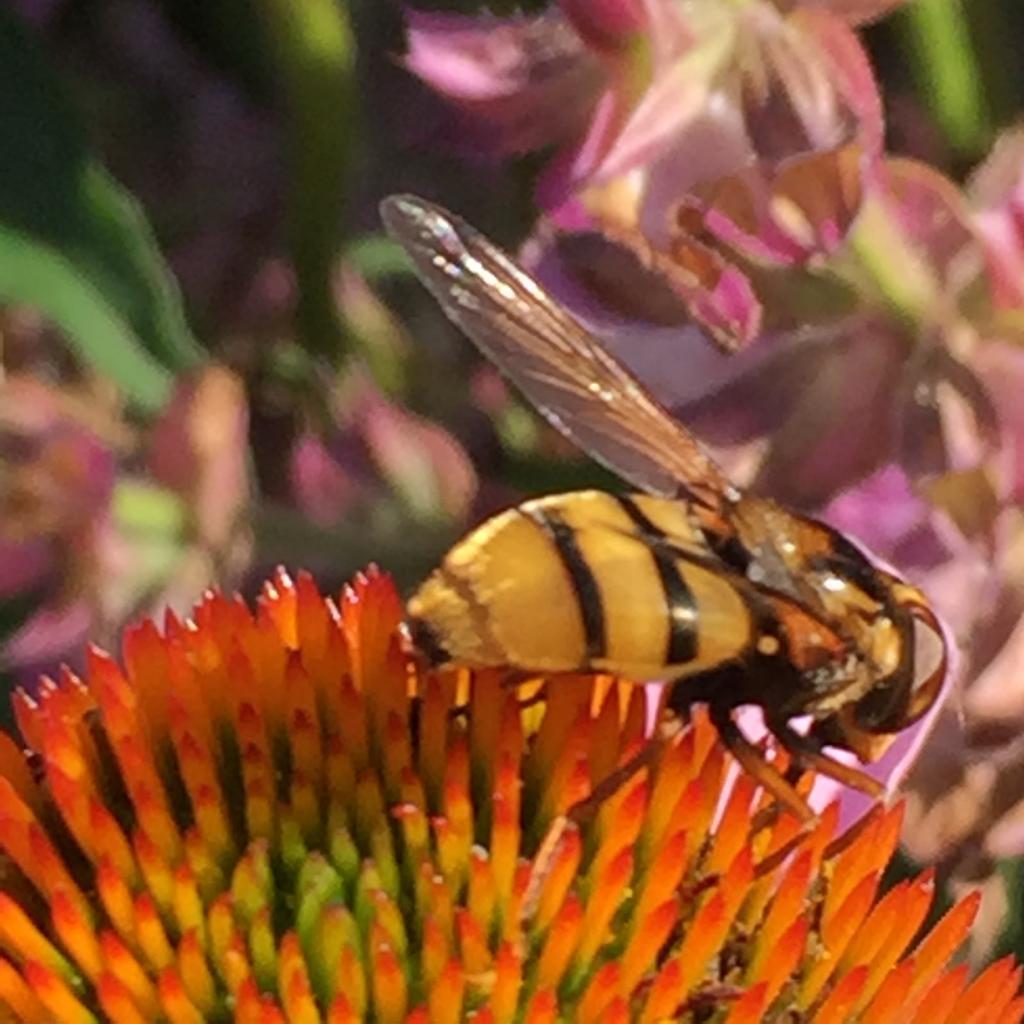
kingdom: Animalia
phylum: Arthropoda
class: Insecta
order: Diptera
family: Syrphidae
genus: Volucella
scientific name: Volucella inanis
